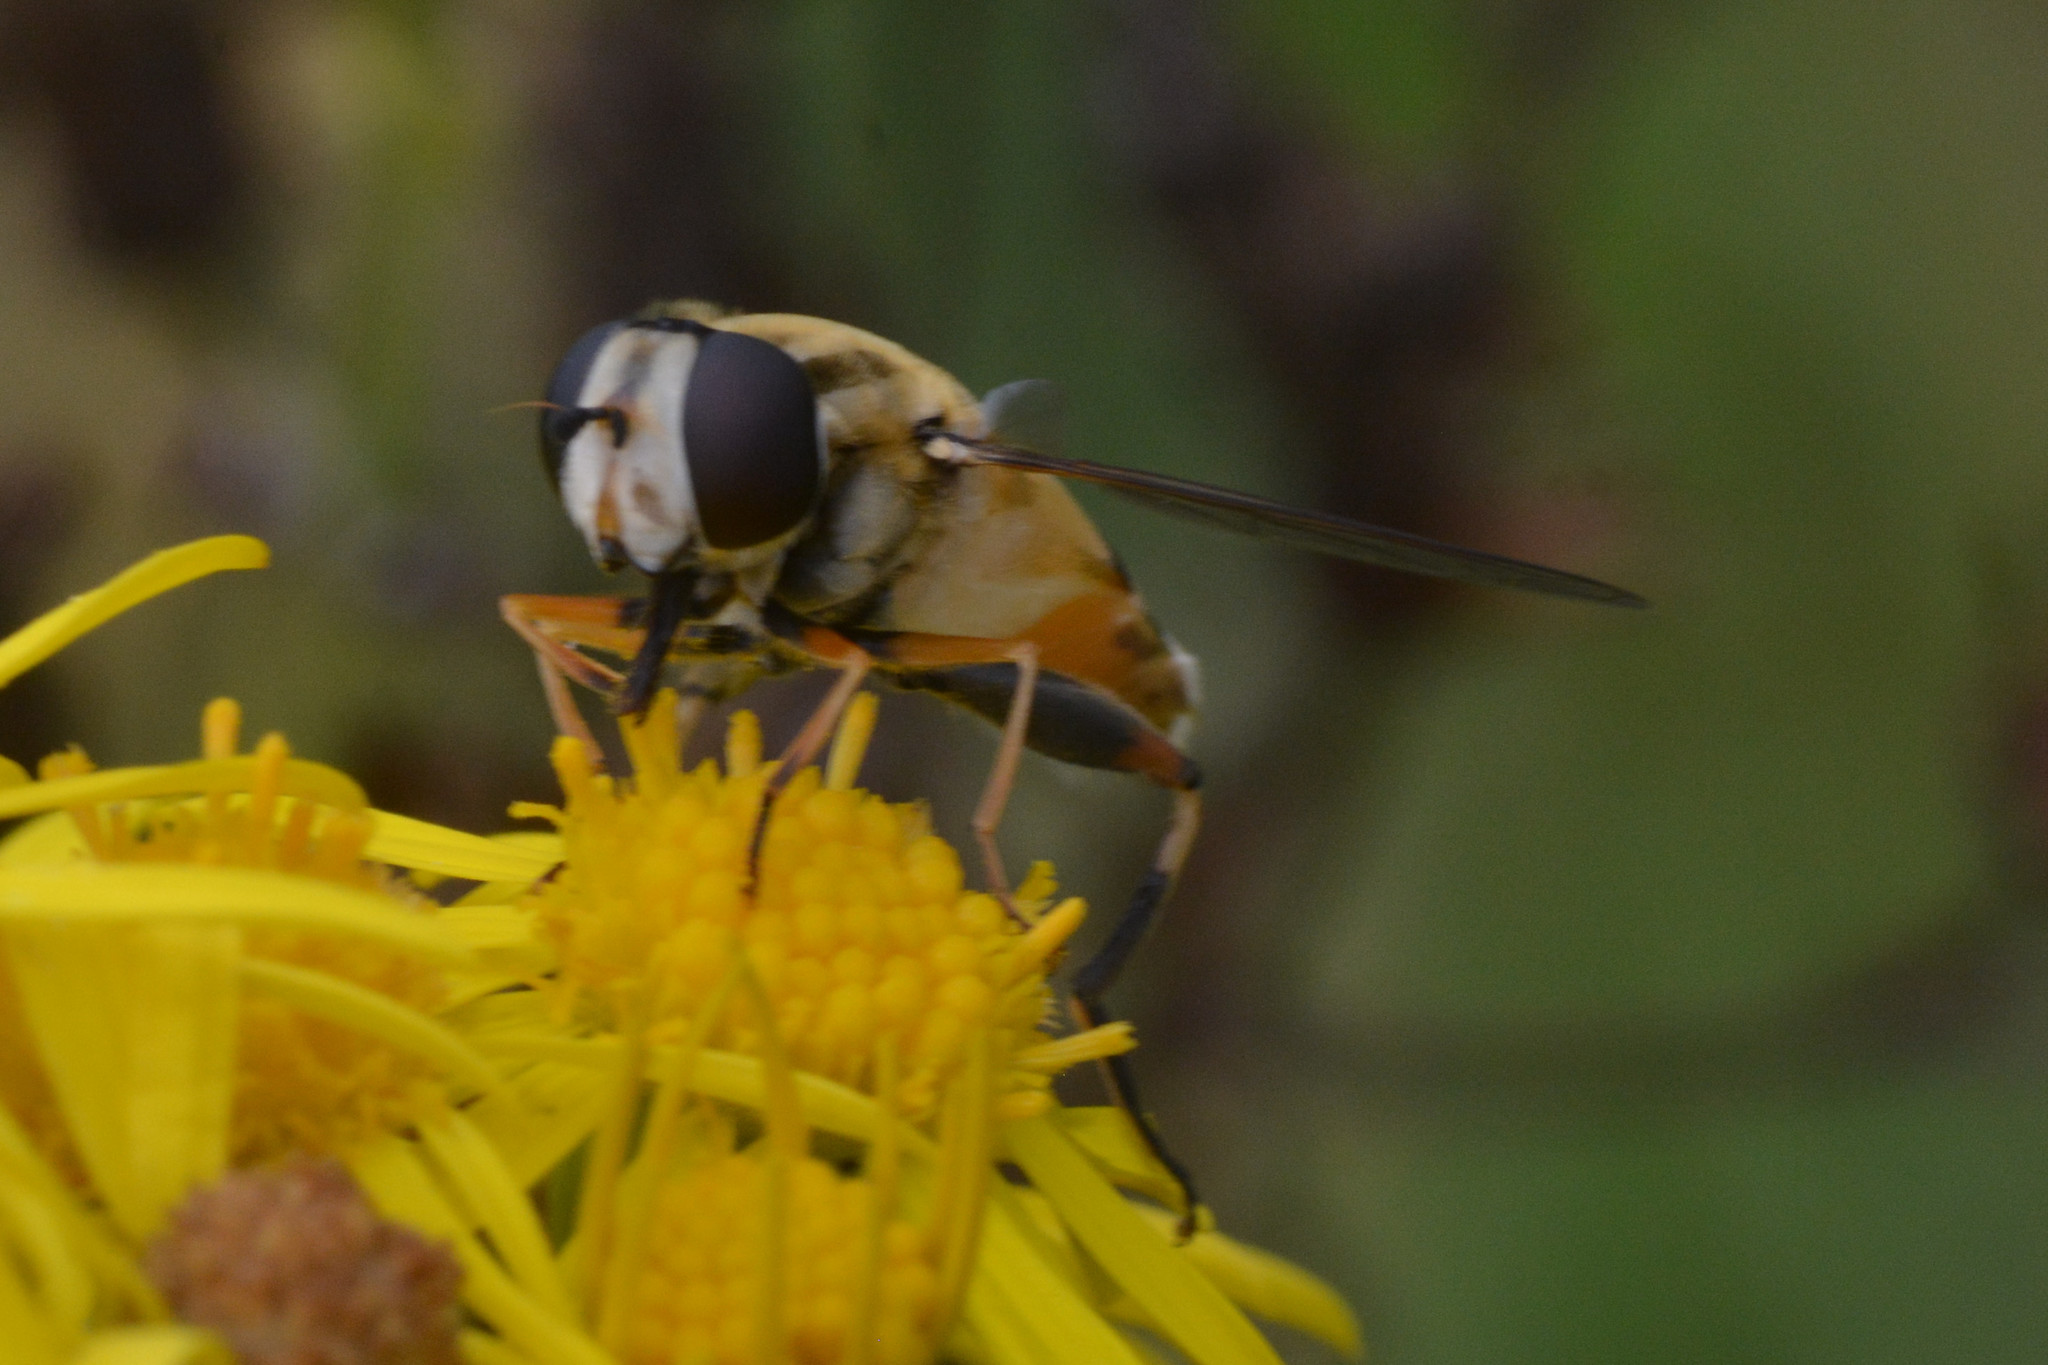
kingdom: Animalia
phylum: Arthropoda
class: Insecta
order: Diptera
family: Syrphidae
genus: Helophilus
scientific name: Helophilus trivittatus
